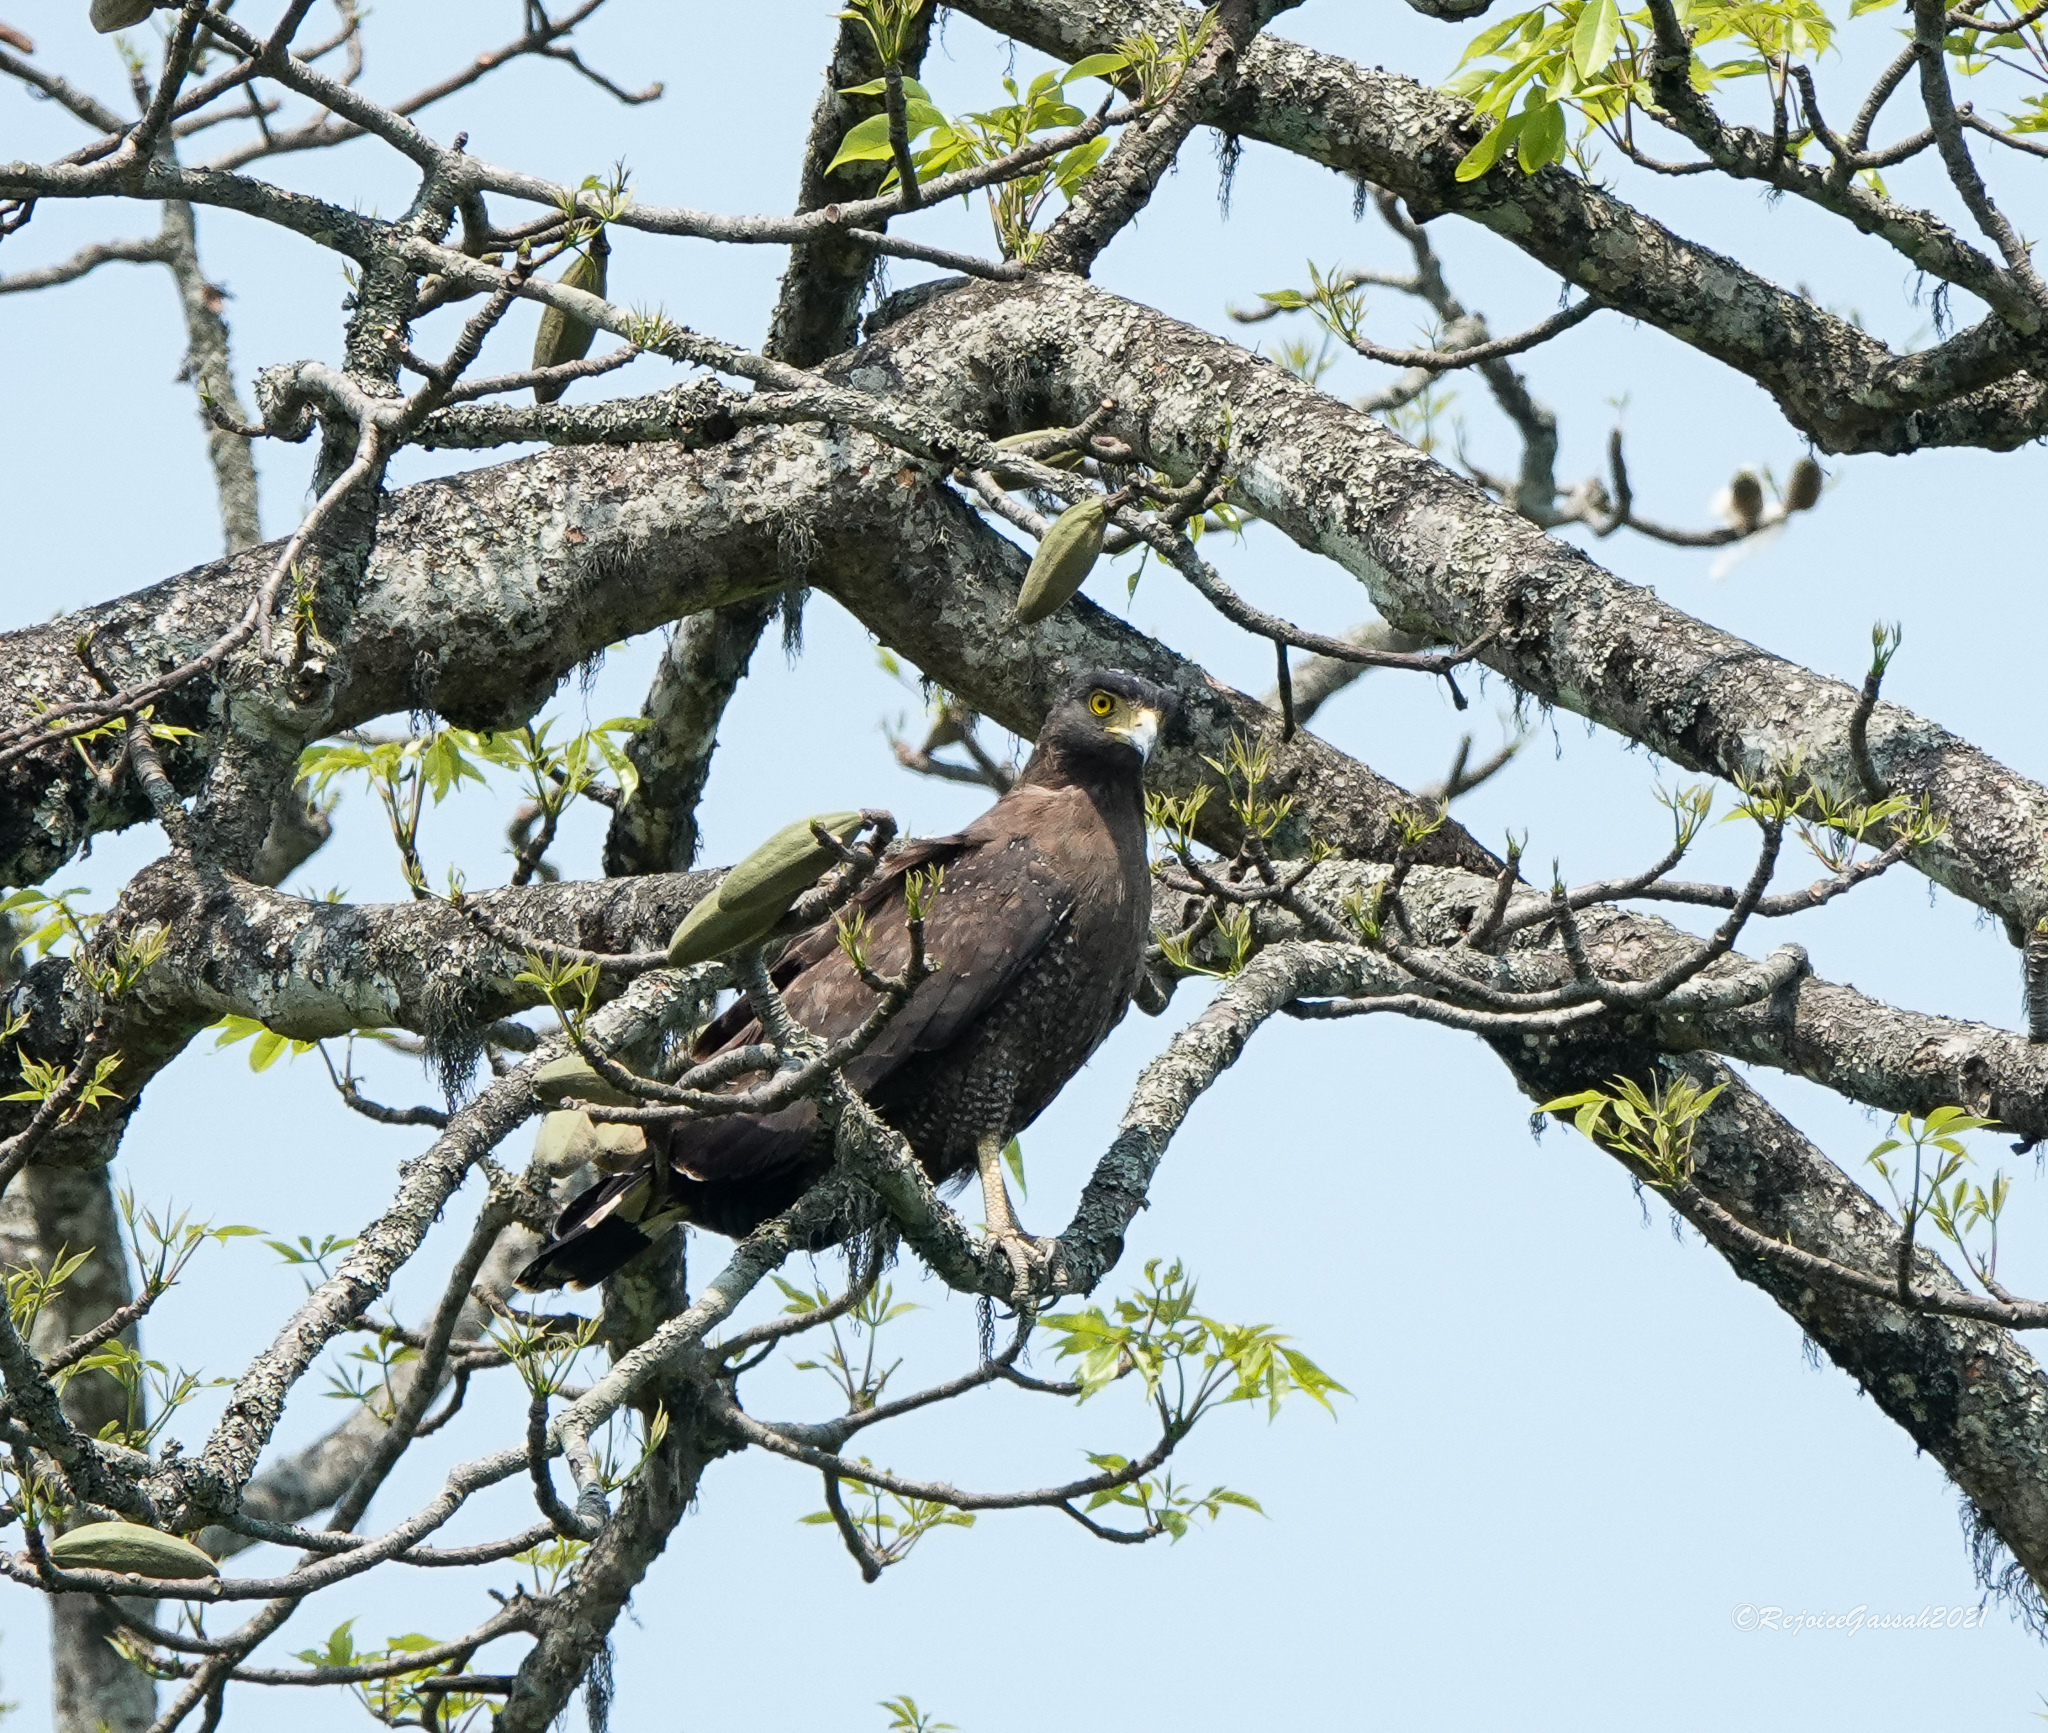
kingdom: Animalia
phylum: Chordata
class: Aves
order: Accipitriformes
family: Accipitridae
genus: Spilornis
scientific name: Spilornis cheela
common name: Crested serpent eagle
